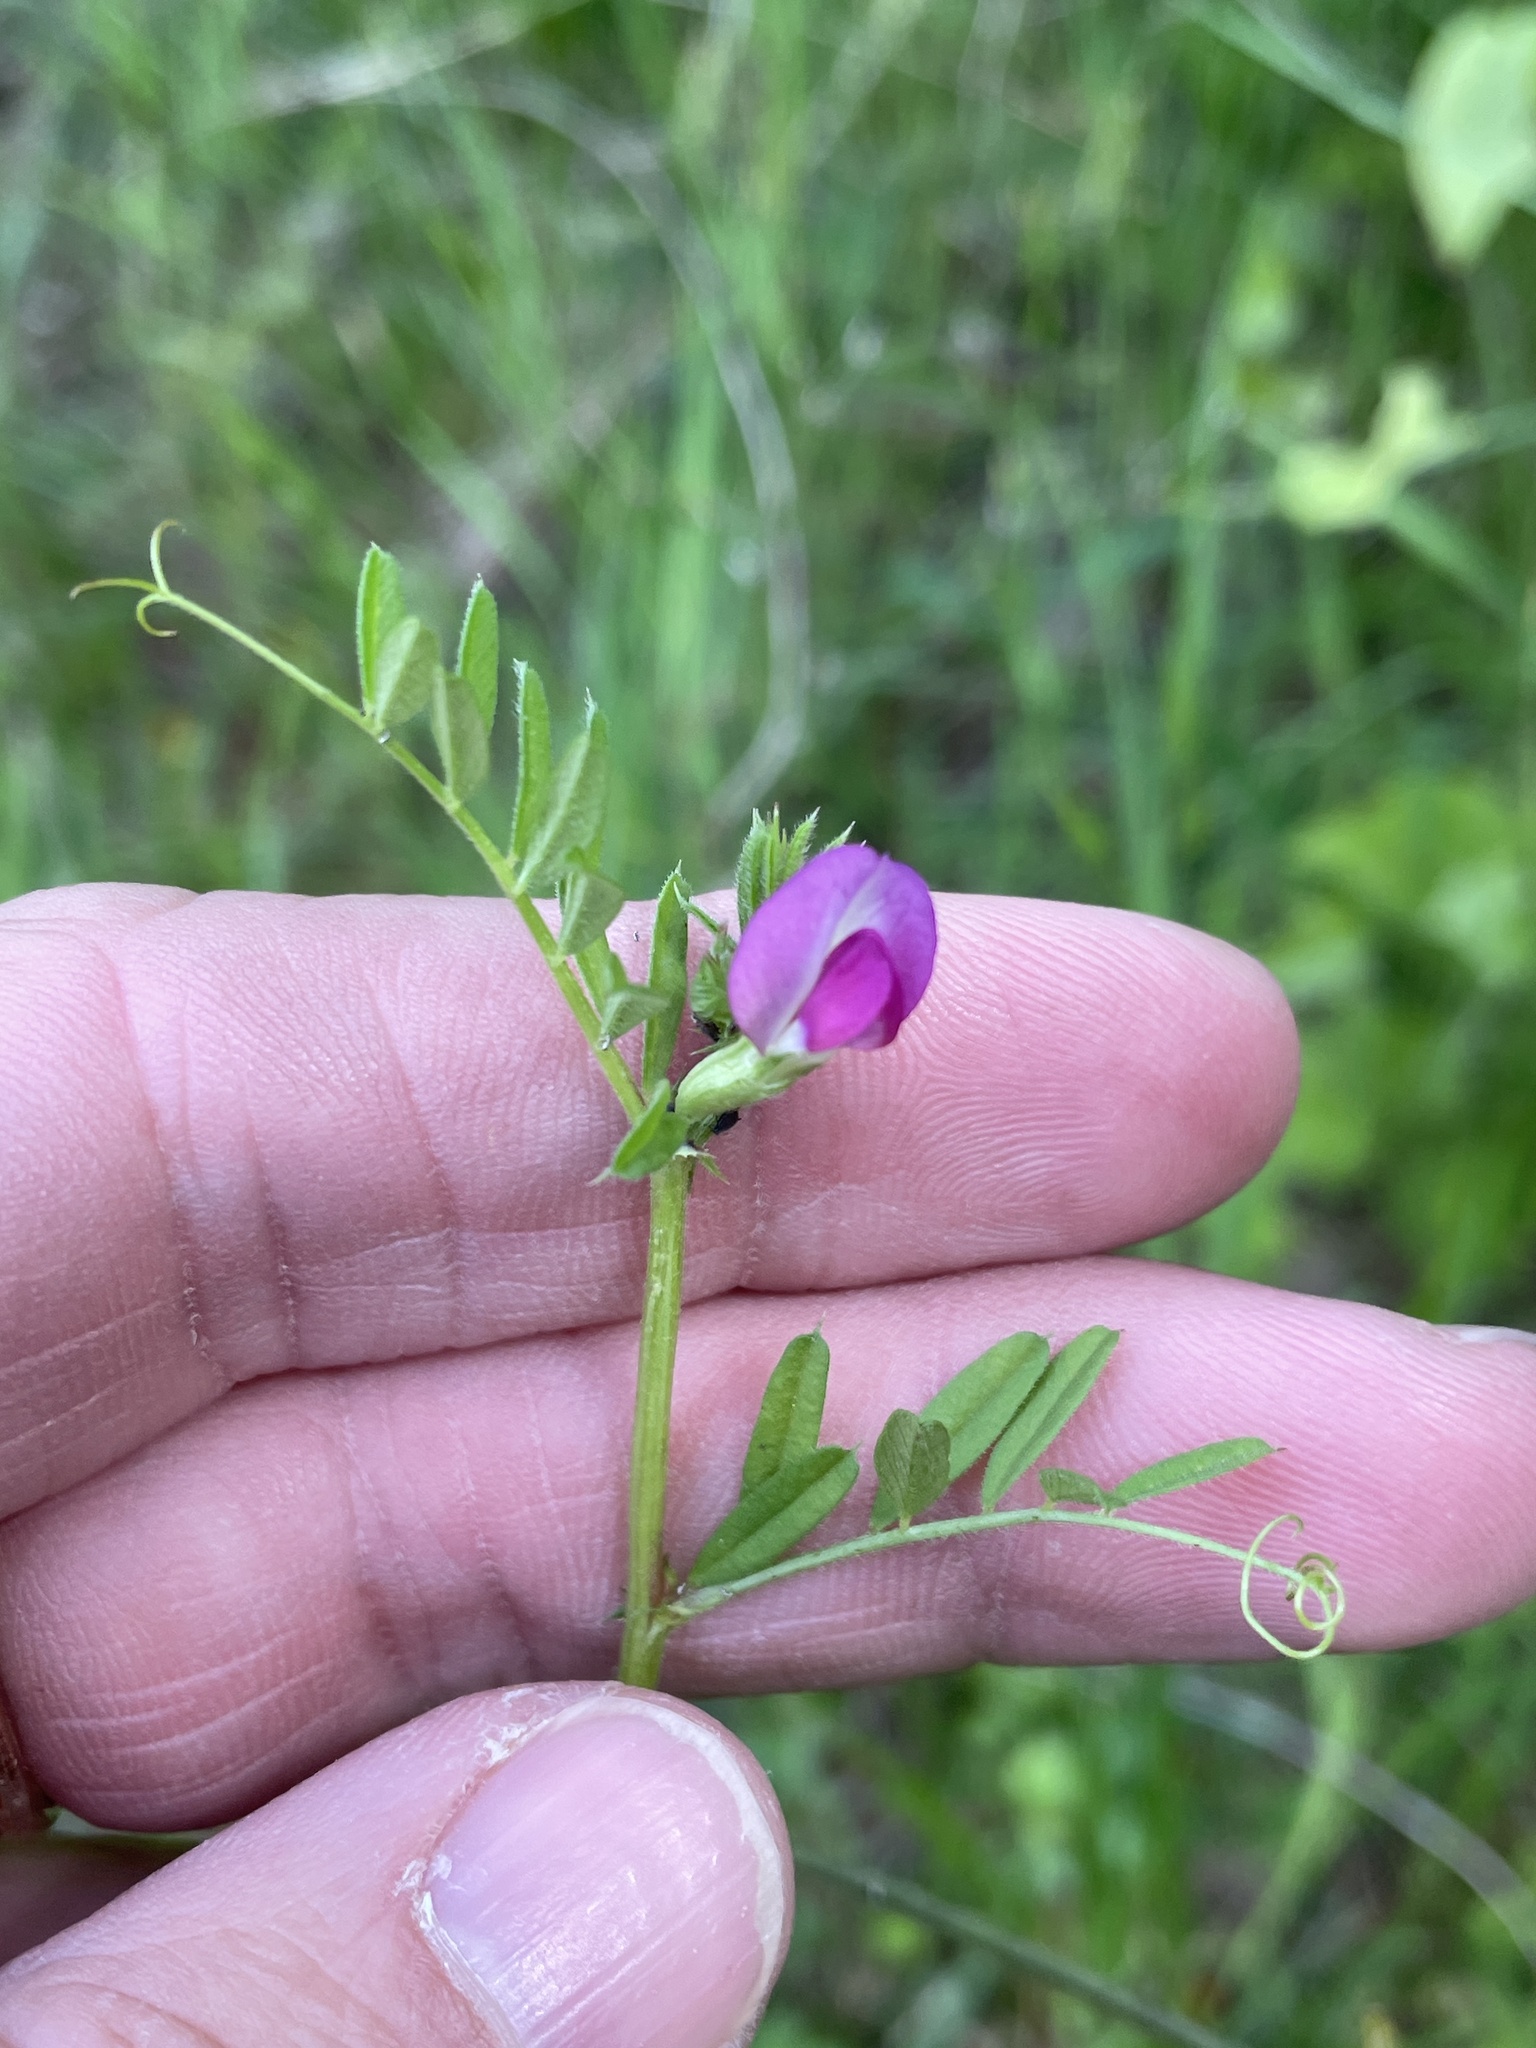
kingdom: Plantae
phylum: Tracheophyta
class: Magnoliopsida
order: Fabales
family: Fabaceae
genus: Vicia
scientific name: Vicia sativa
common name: Garden vetch
